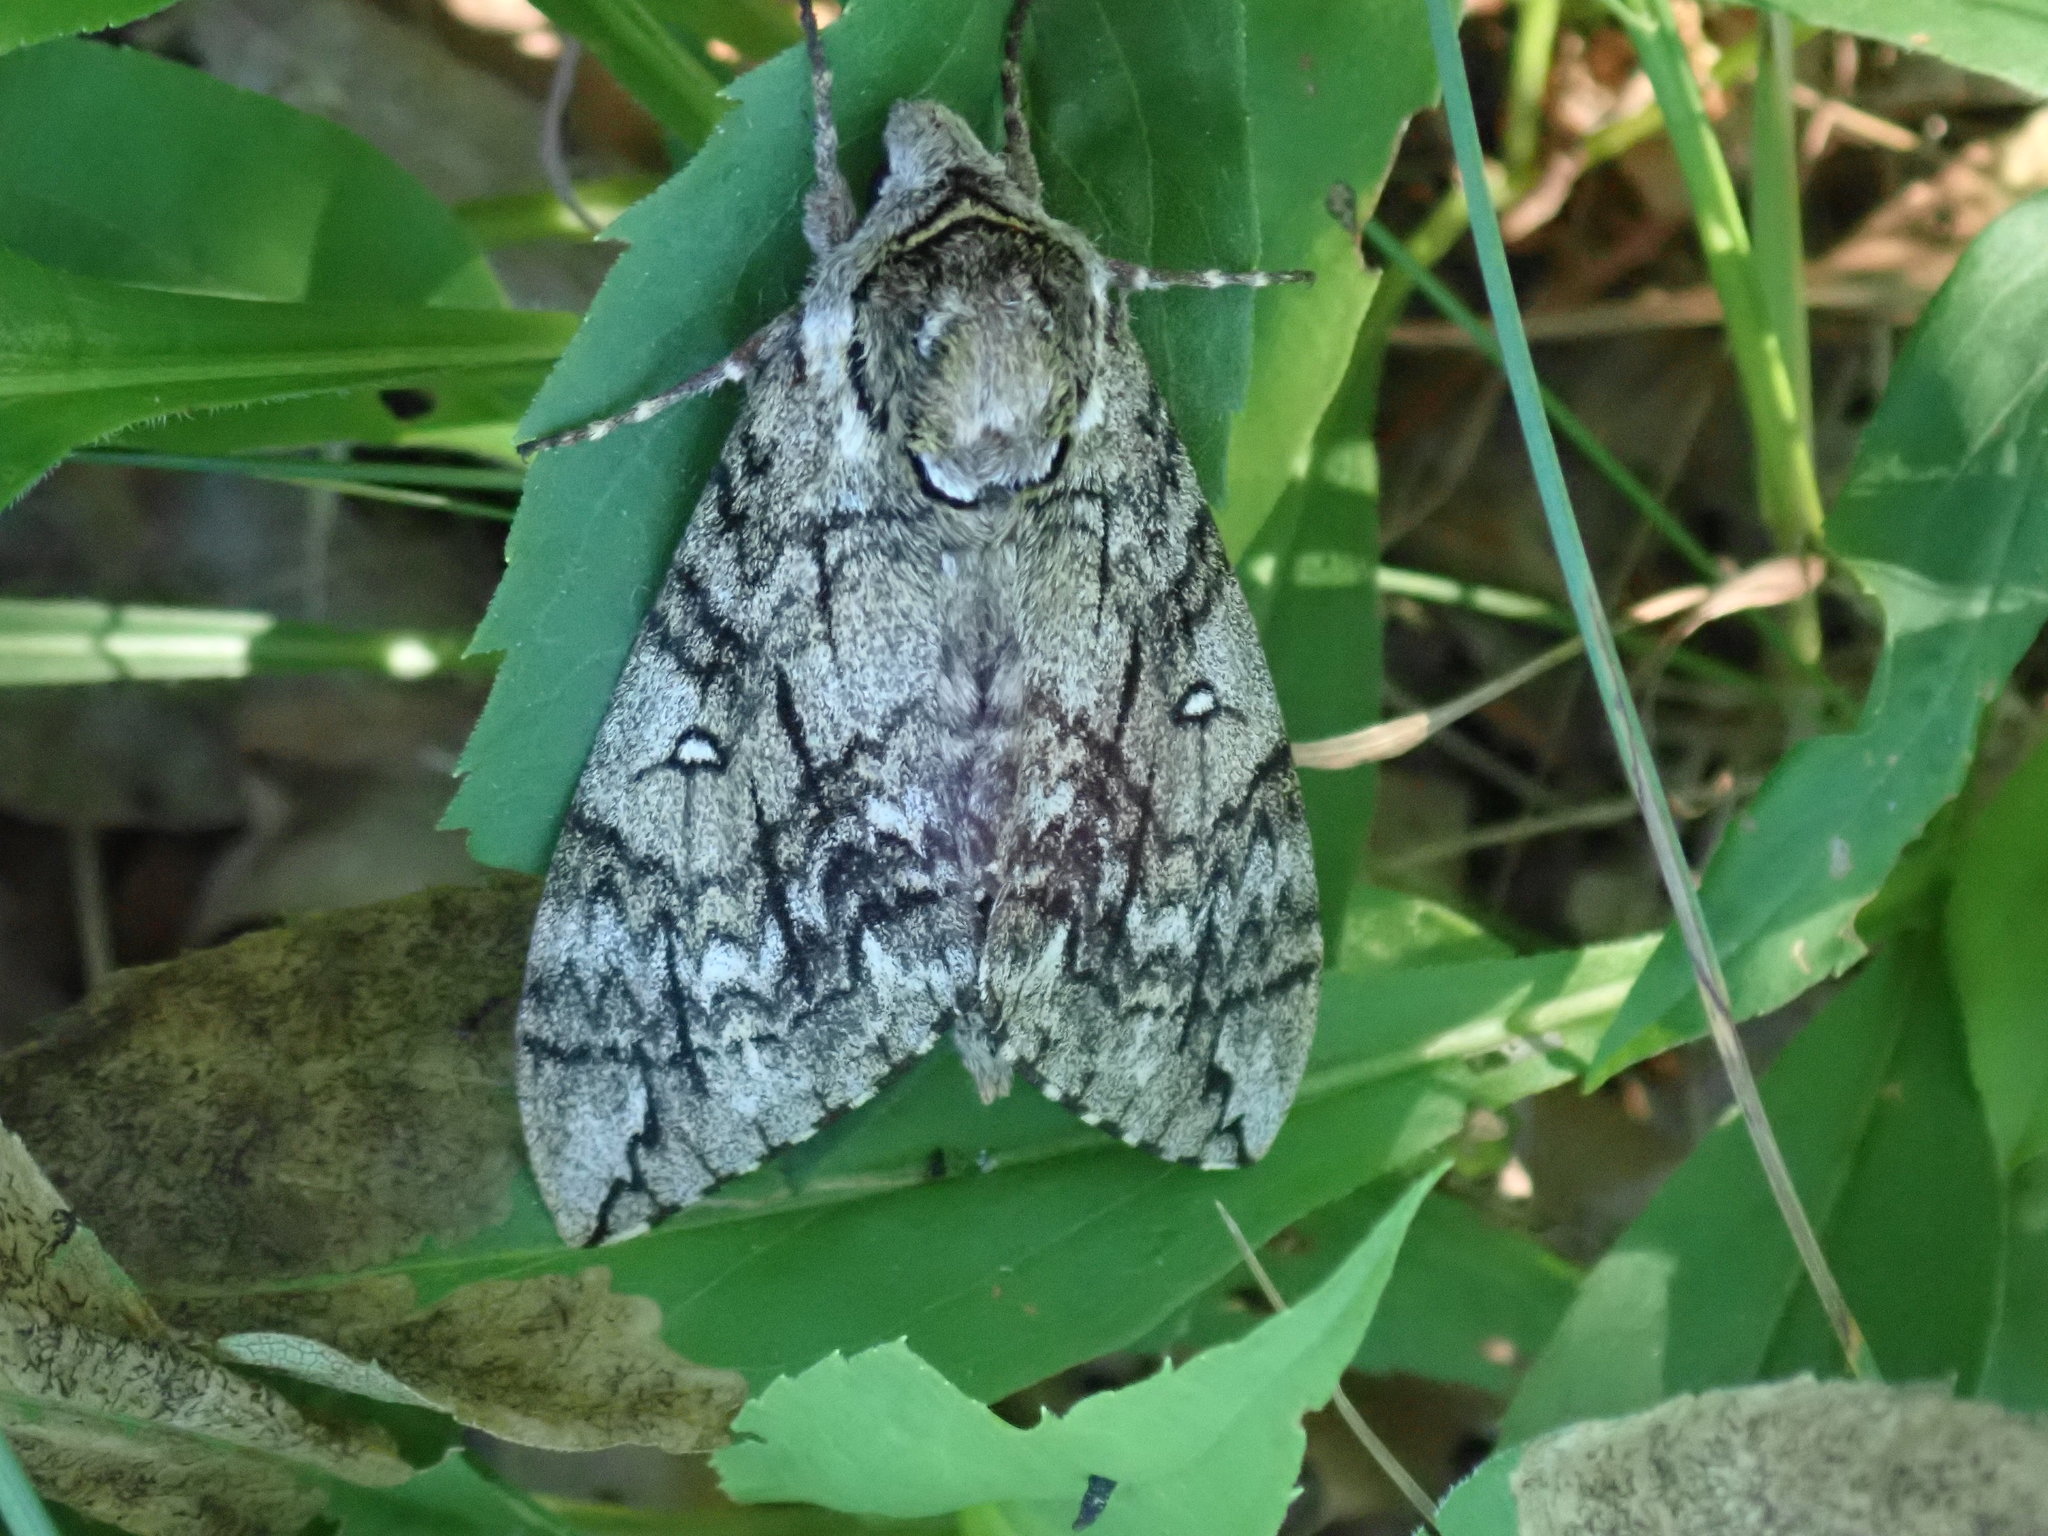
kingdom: Animalia
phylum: Arthropoda
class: Insecta
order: Lepidoptera
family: Sphingidae
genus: Ceratomia
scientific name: Ceratomia undulosa
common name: Waved sphinx
